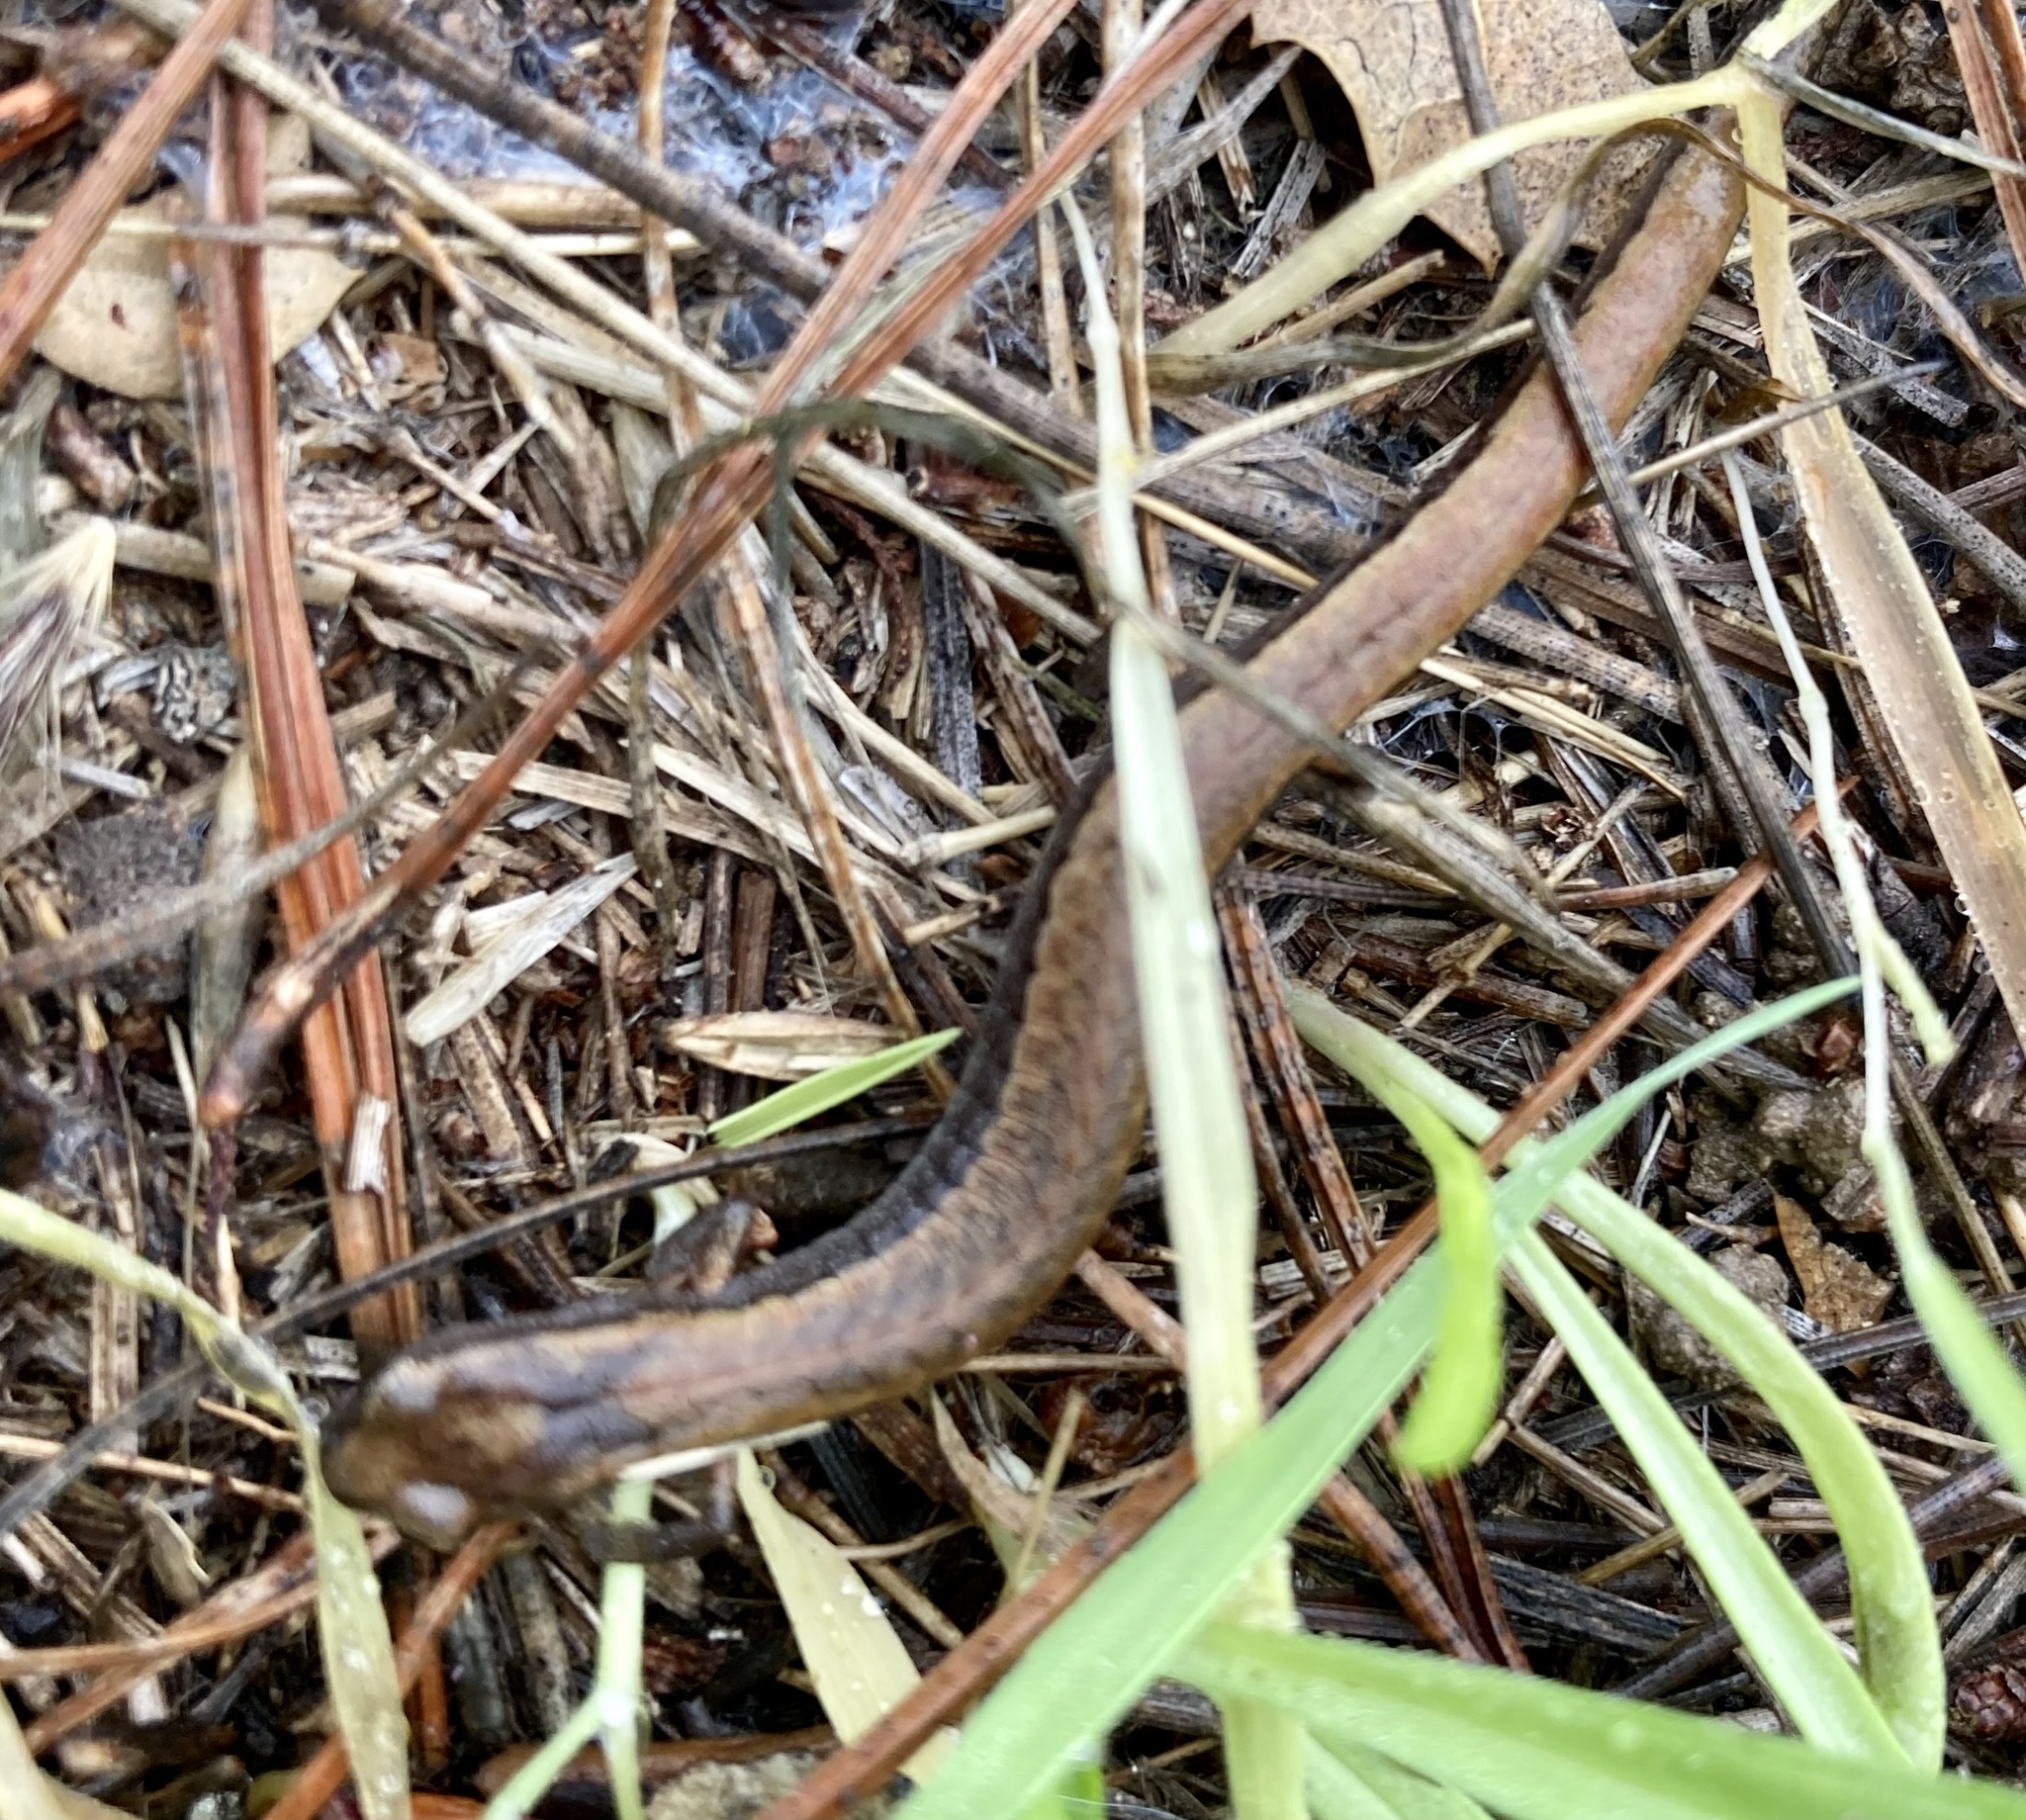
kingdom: Animalia
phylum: Chordata
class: Amphibia
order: Caudata
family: Plethodontidae
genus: Batrachoseps
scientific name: Batrachoseps attenuatus
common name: California slender salamander
